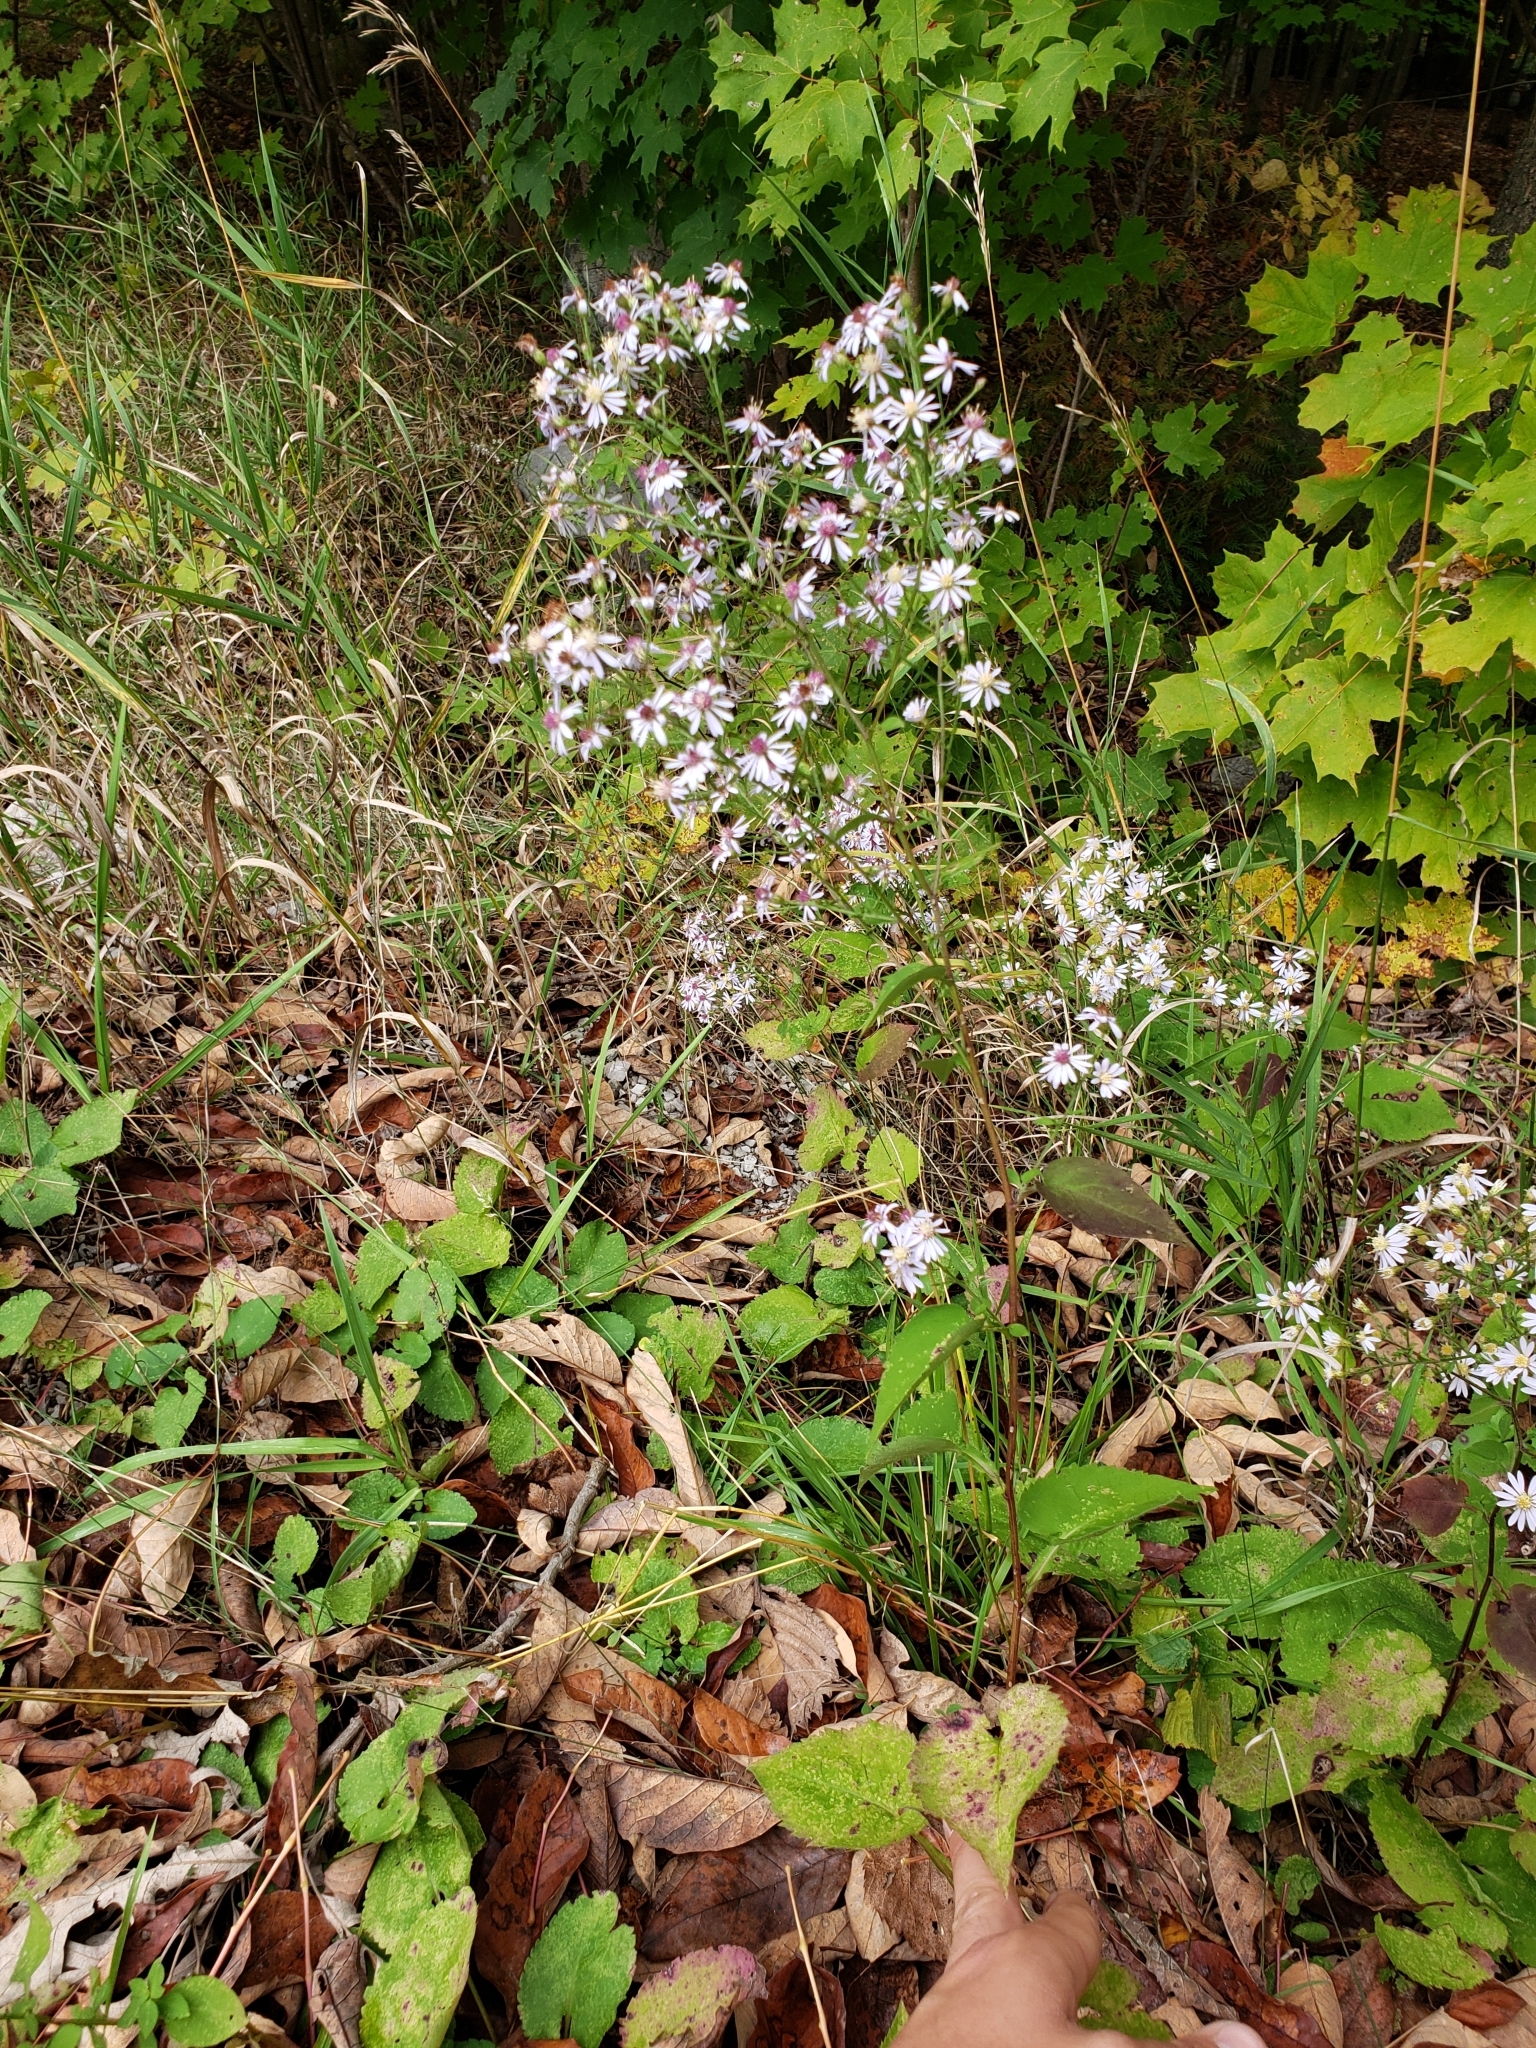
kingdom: Plantae
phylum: Tracheophyta
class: Magnoliopsida
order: Asterales
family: Asteraceae
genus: Symphyotrichum
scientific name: Symphyotrichum cordifolium
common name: Beeweed
